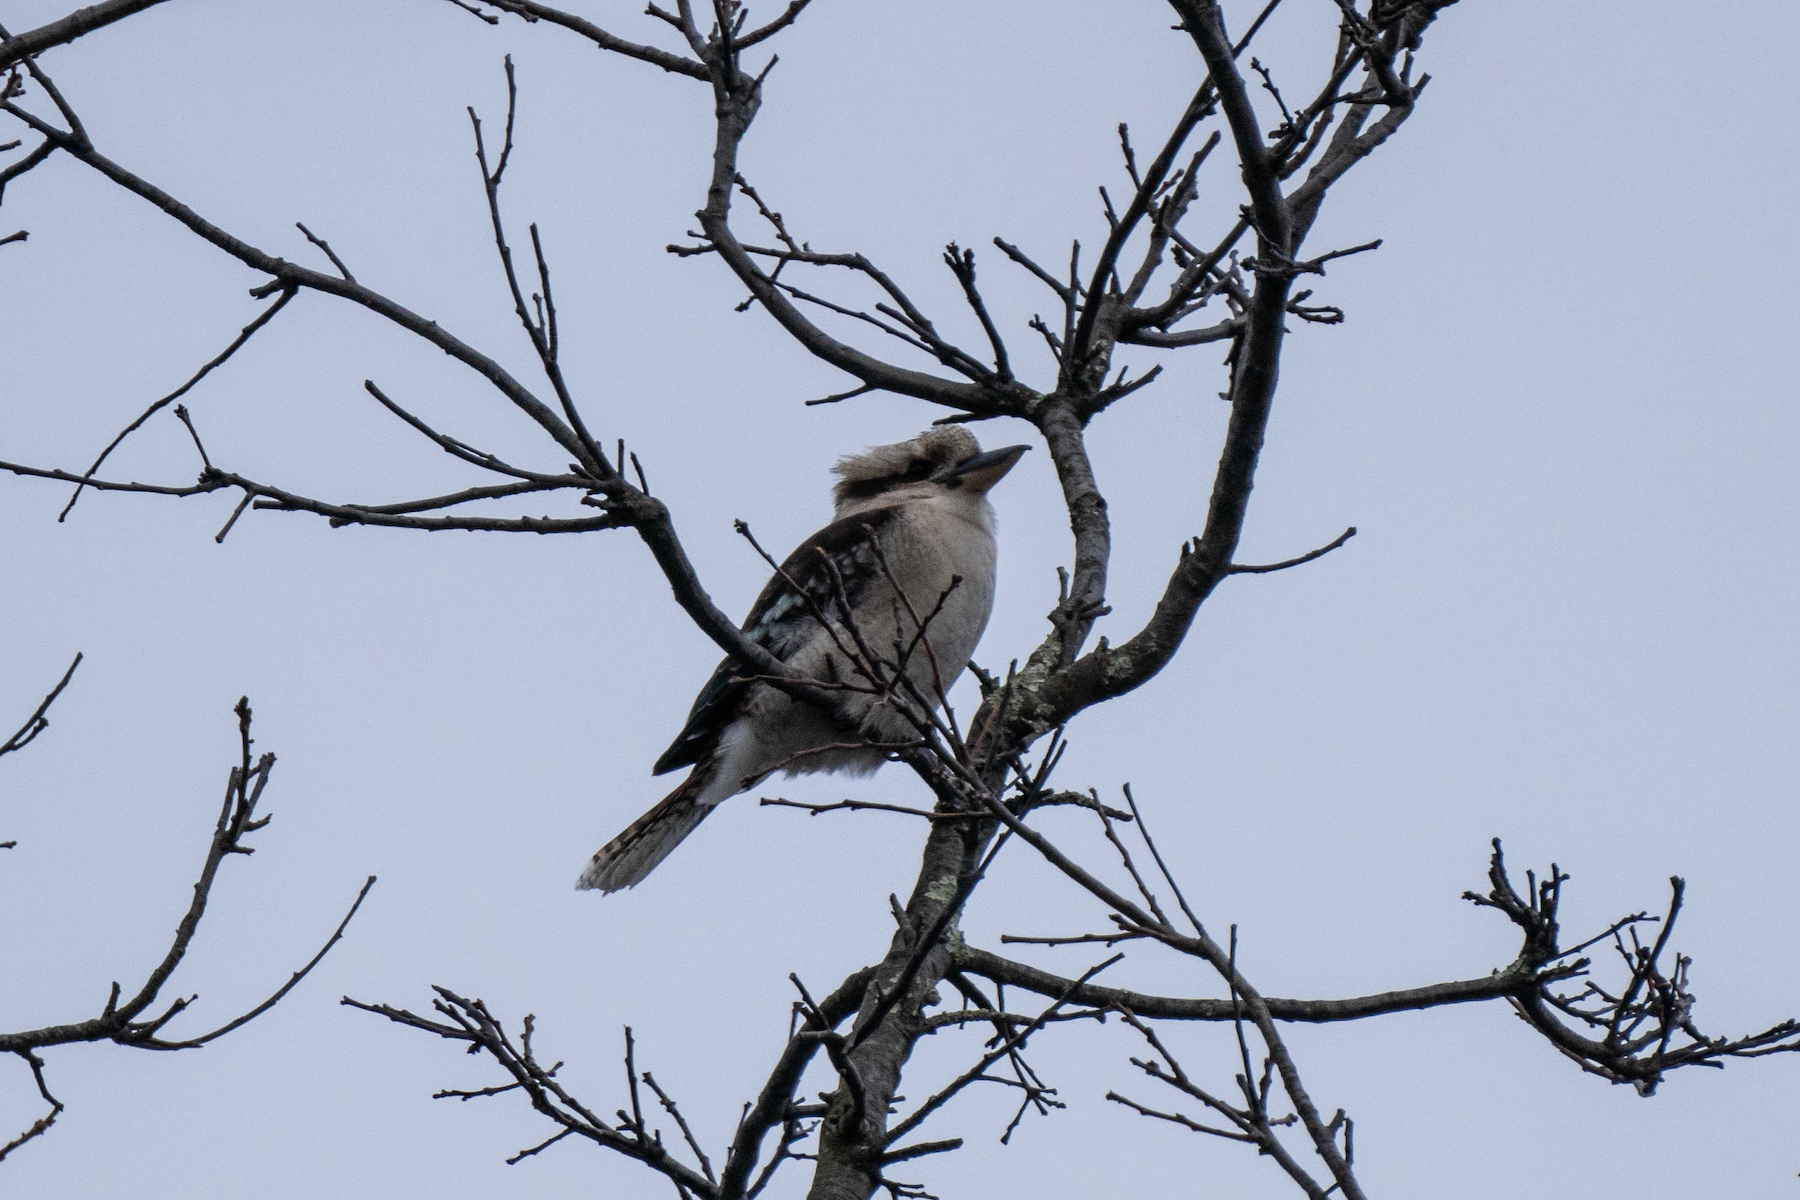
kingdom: Animalia
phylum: Chordata
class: Aves
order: Coraciiformes
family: Alcedinidae
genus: Dacelo
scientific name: Dacelo novaeguineae
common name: Laughing kookaburra
